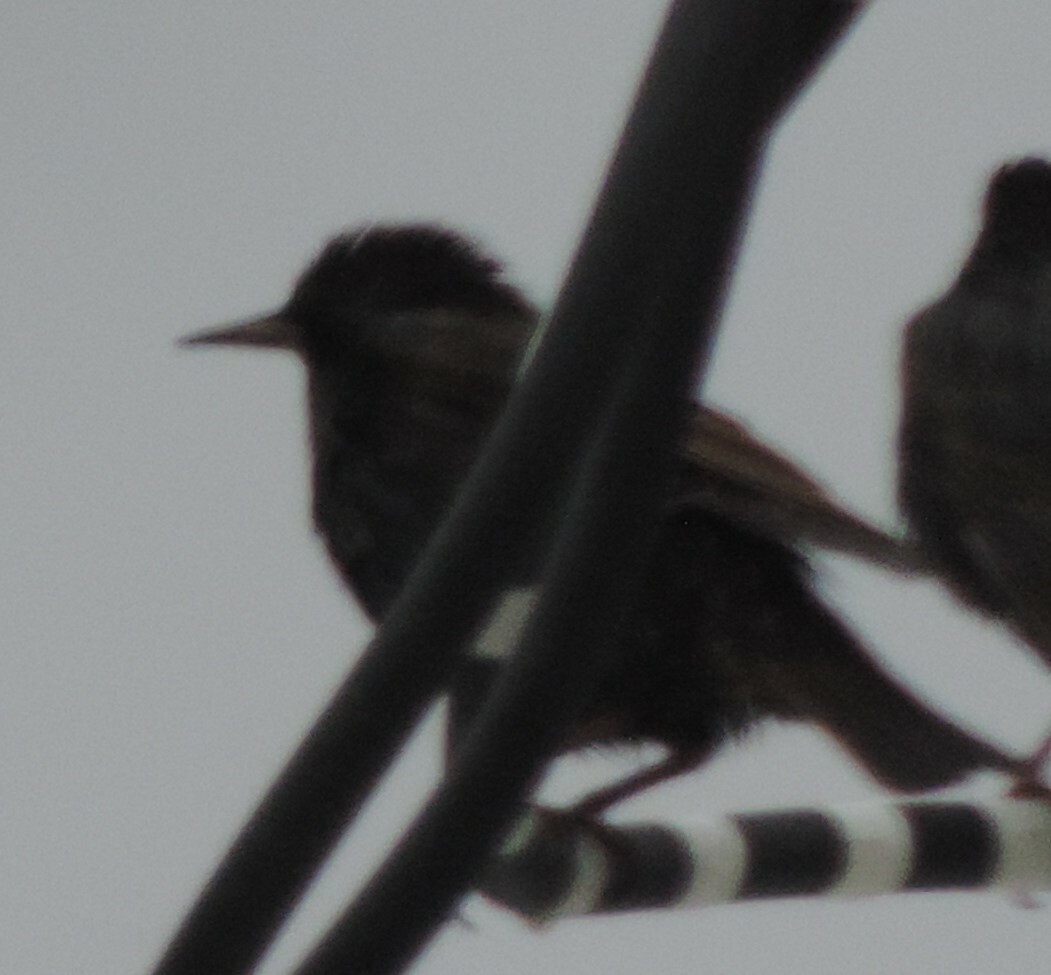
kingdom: Animalia
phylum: Chordata
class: Aves
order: Passeriformes
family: Sturnidae
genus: Sturnus
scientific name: Sturnus vulgaris
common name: Common starling
